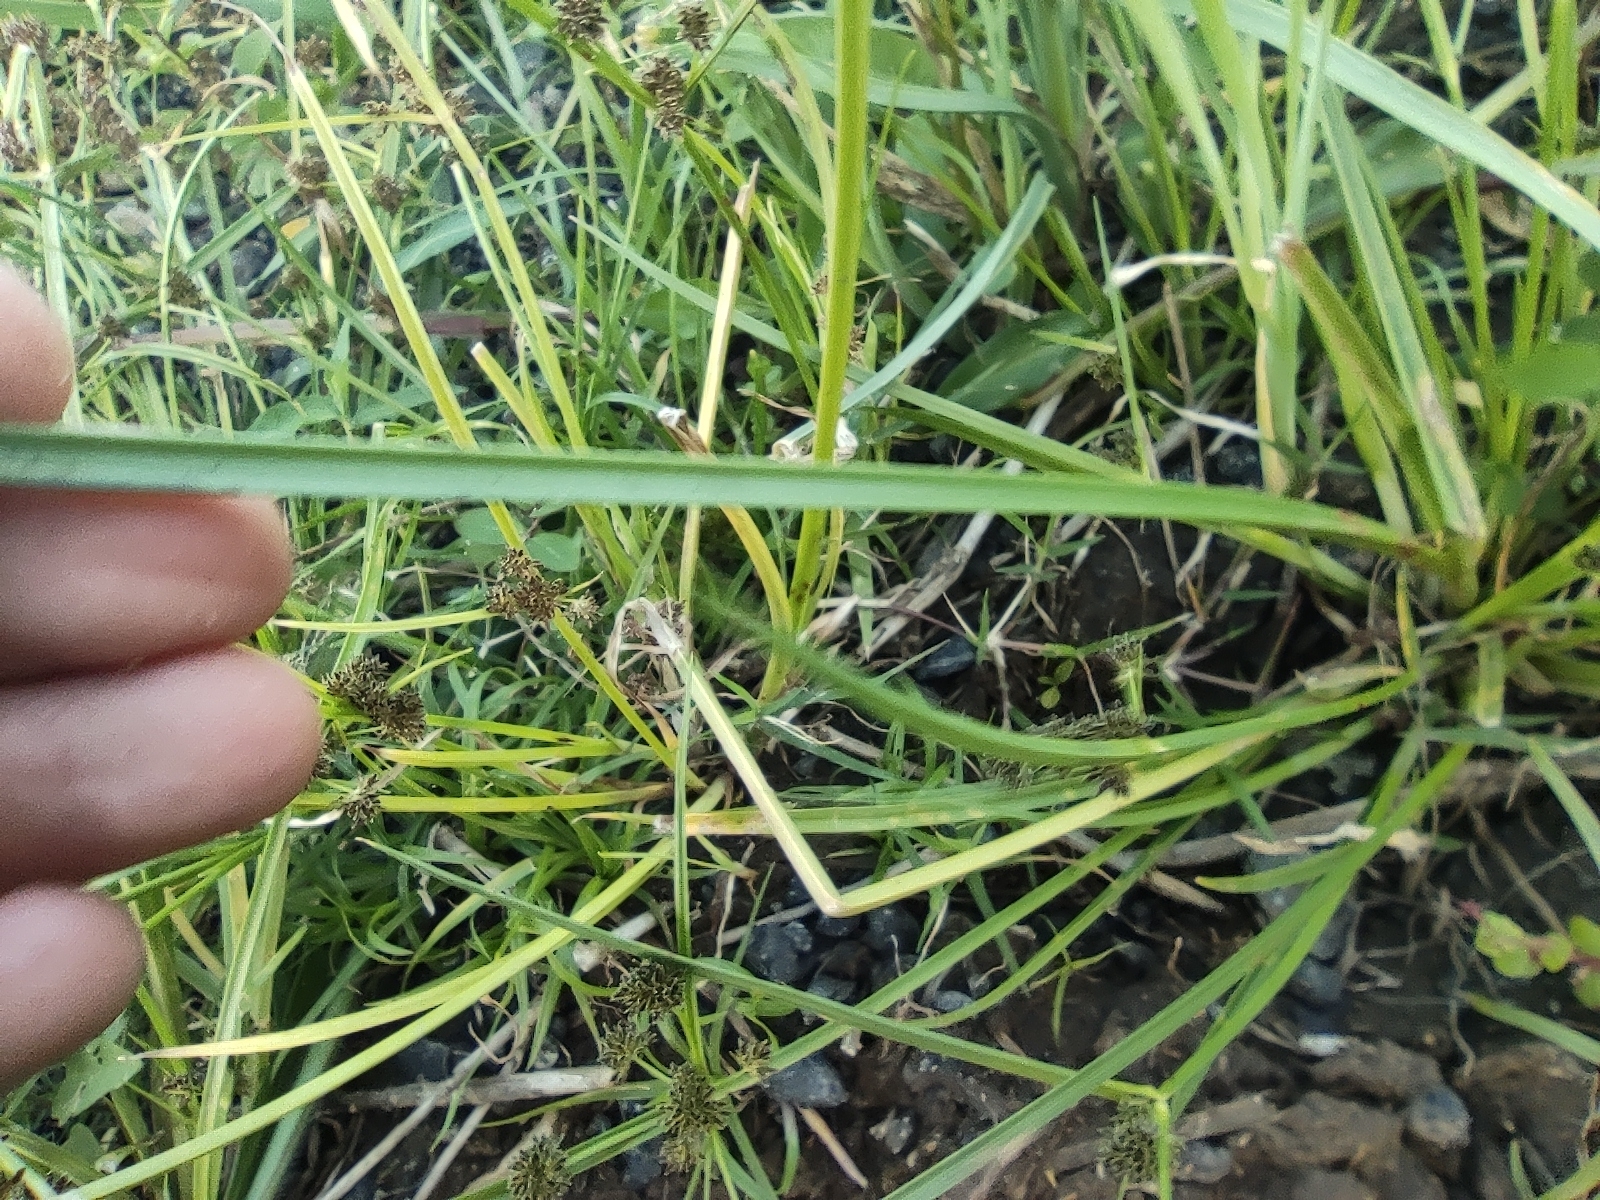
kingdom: Plantae
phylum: Tracheophyta
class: Liliopsida
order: Poales
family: Cyperaceae
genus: Cyperus
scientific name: Cyperus difformis
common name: Variable flatsedge
